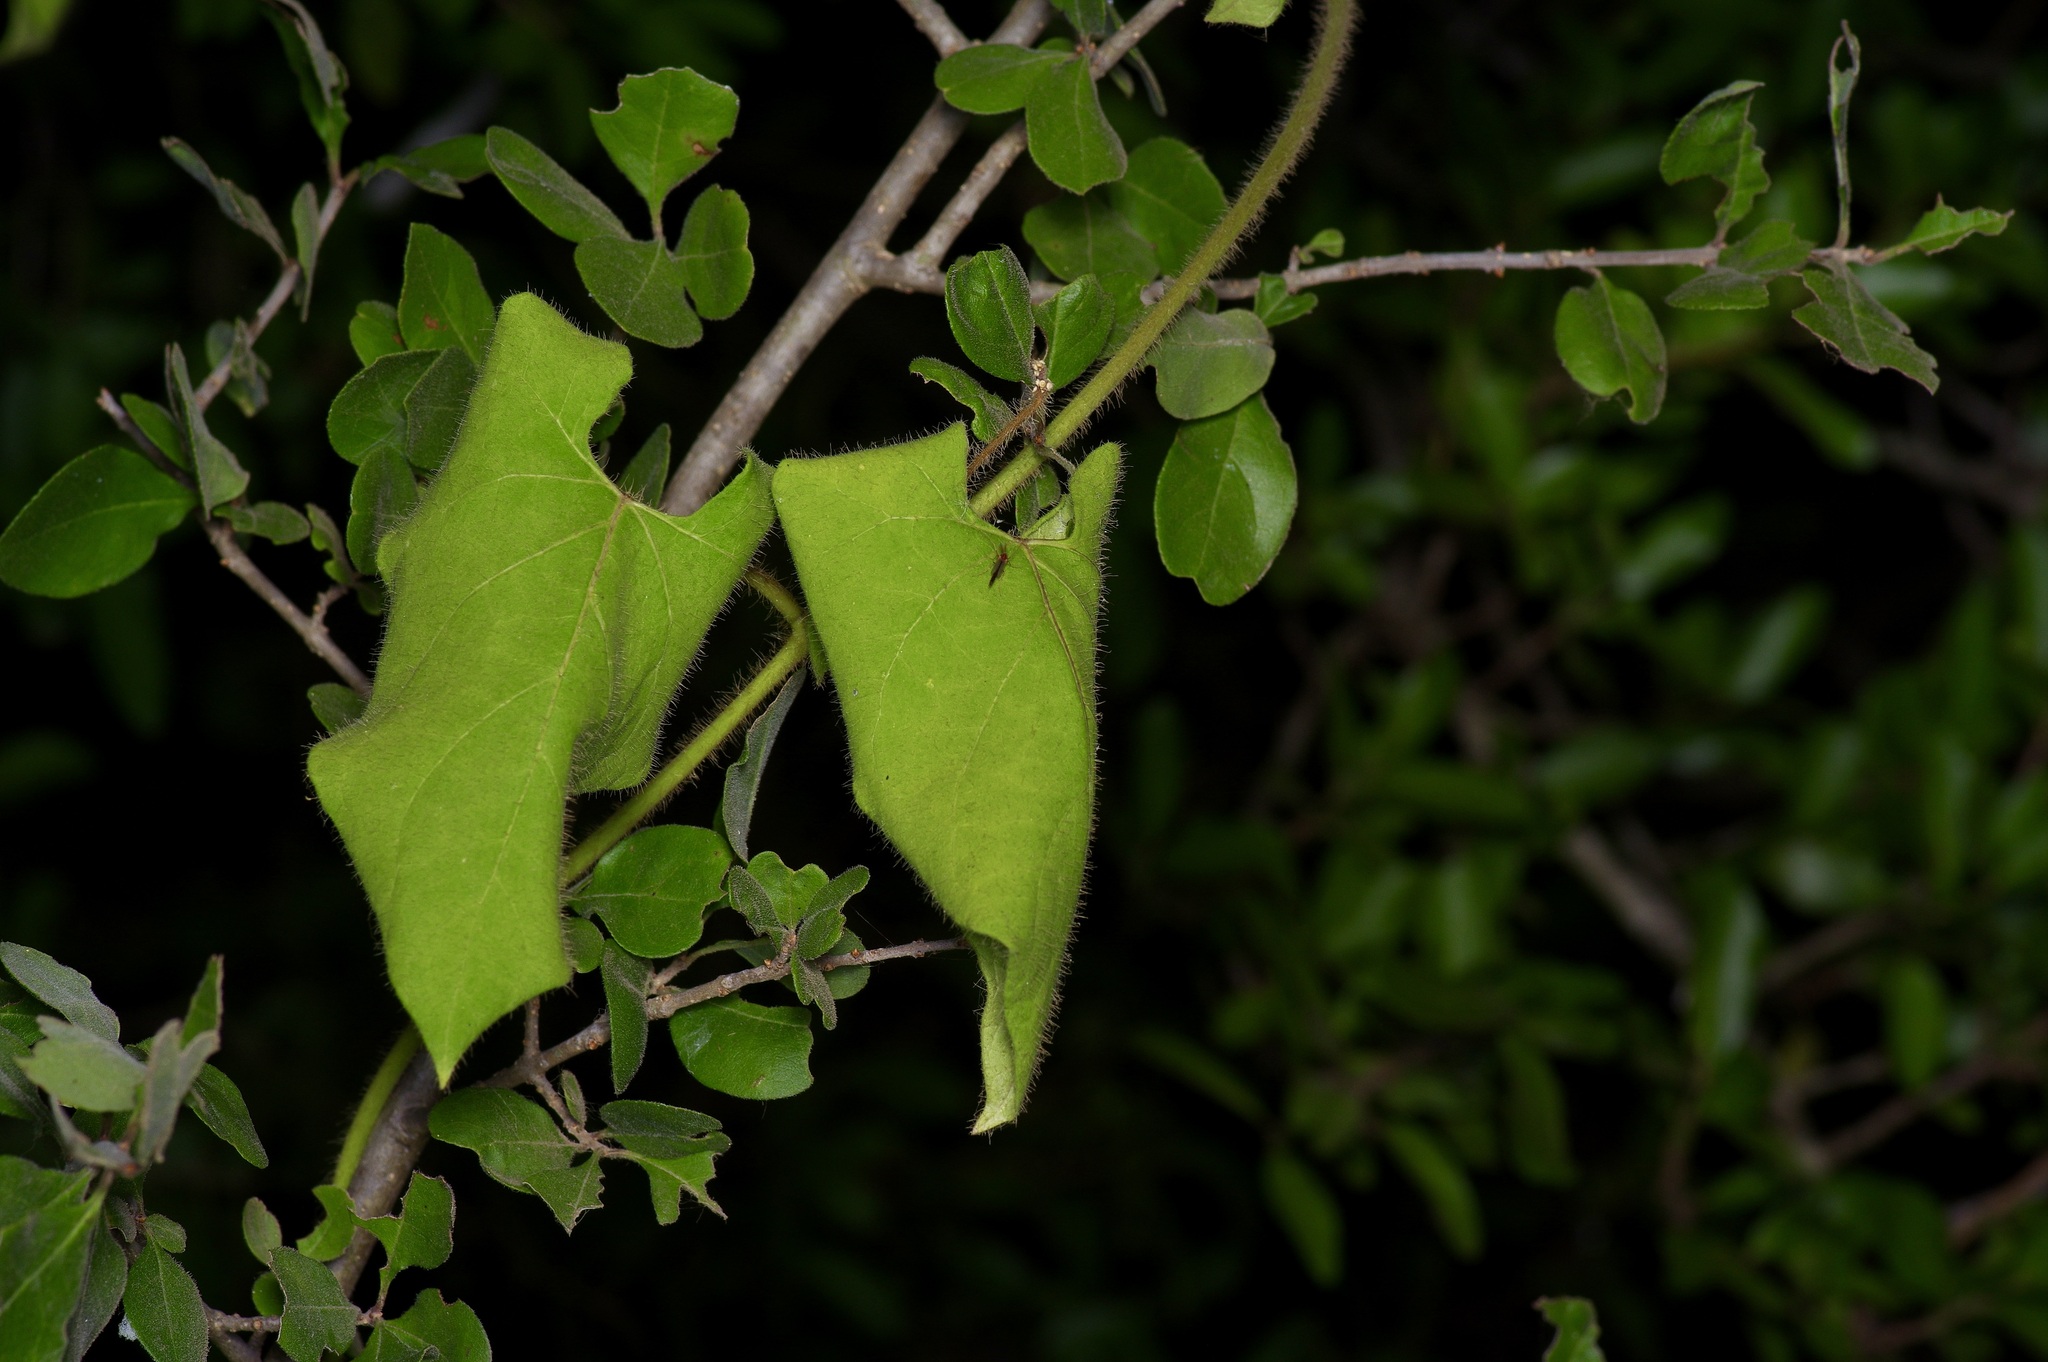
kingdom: Plantae
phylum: Tracheophyta
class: Magnoliopsida
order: Gentianales
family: Apocynaceae
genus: Dictyanthus
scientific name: Dictyanthus reticulatus
